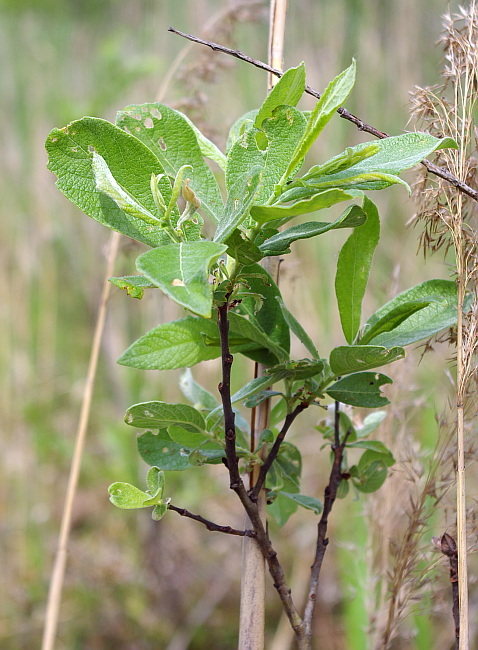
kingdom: Plantae
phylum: Tracheophyta
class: Magnoliopsida
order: Malpighiales
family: Salicaceae
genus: Salix
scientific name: Salix aurita
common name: Eared willow
